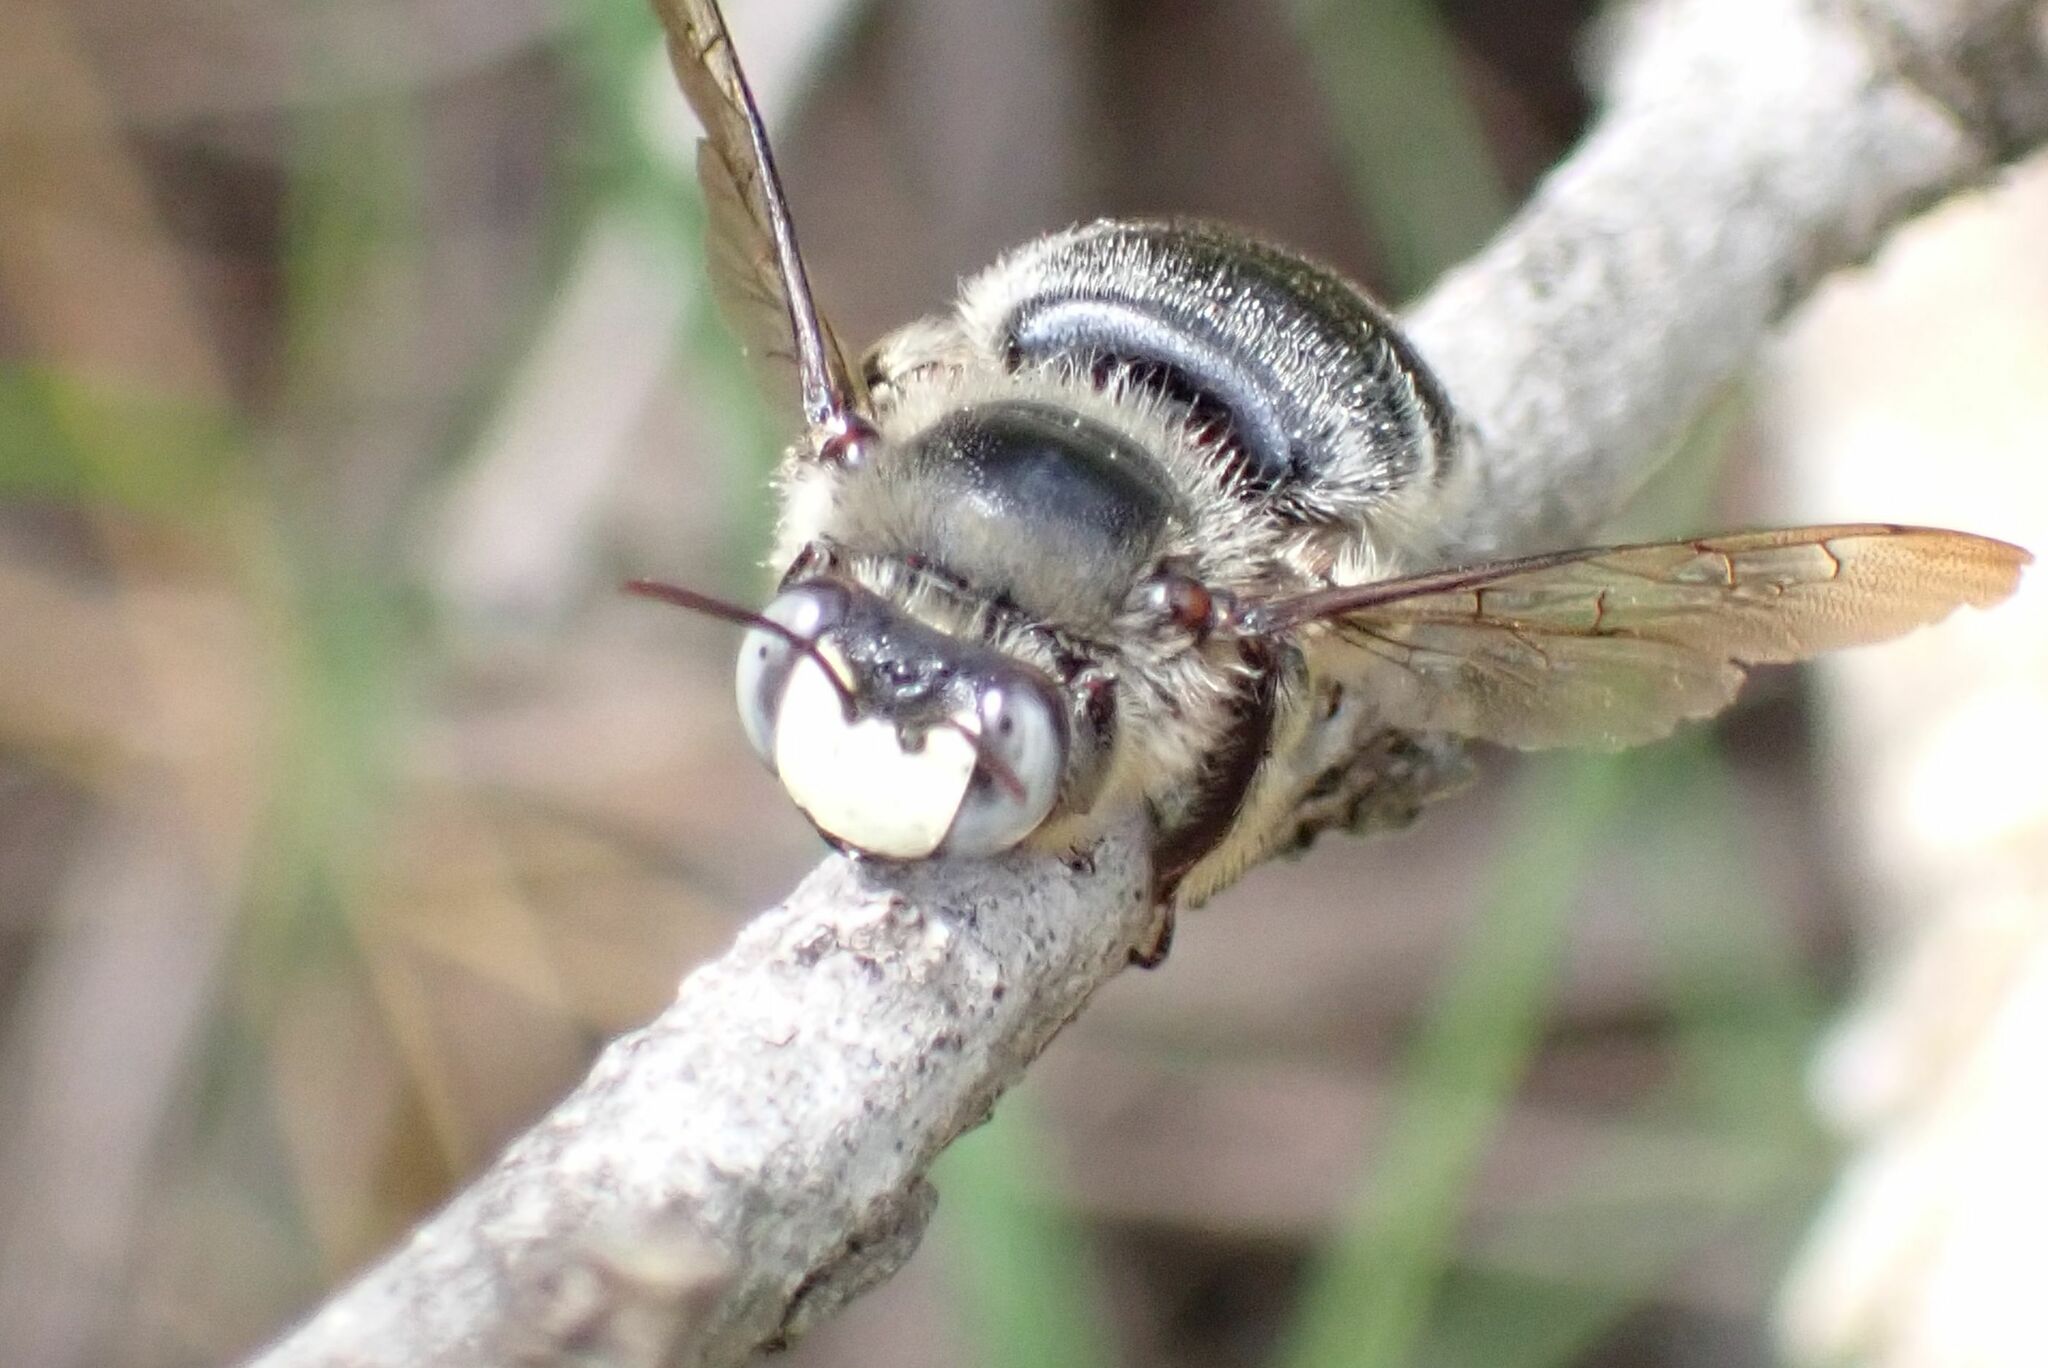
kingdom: Animalia
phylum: Arthropoda
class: Insecta
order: Hymenoptera
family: Apidae
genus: Xylocopa
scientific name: Xylocopa lugubris
